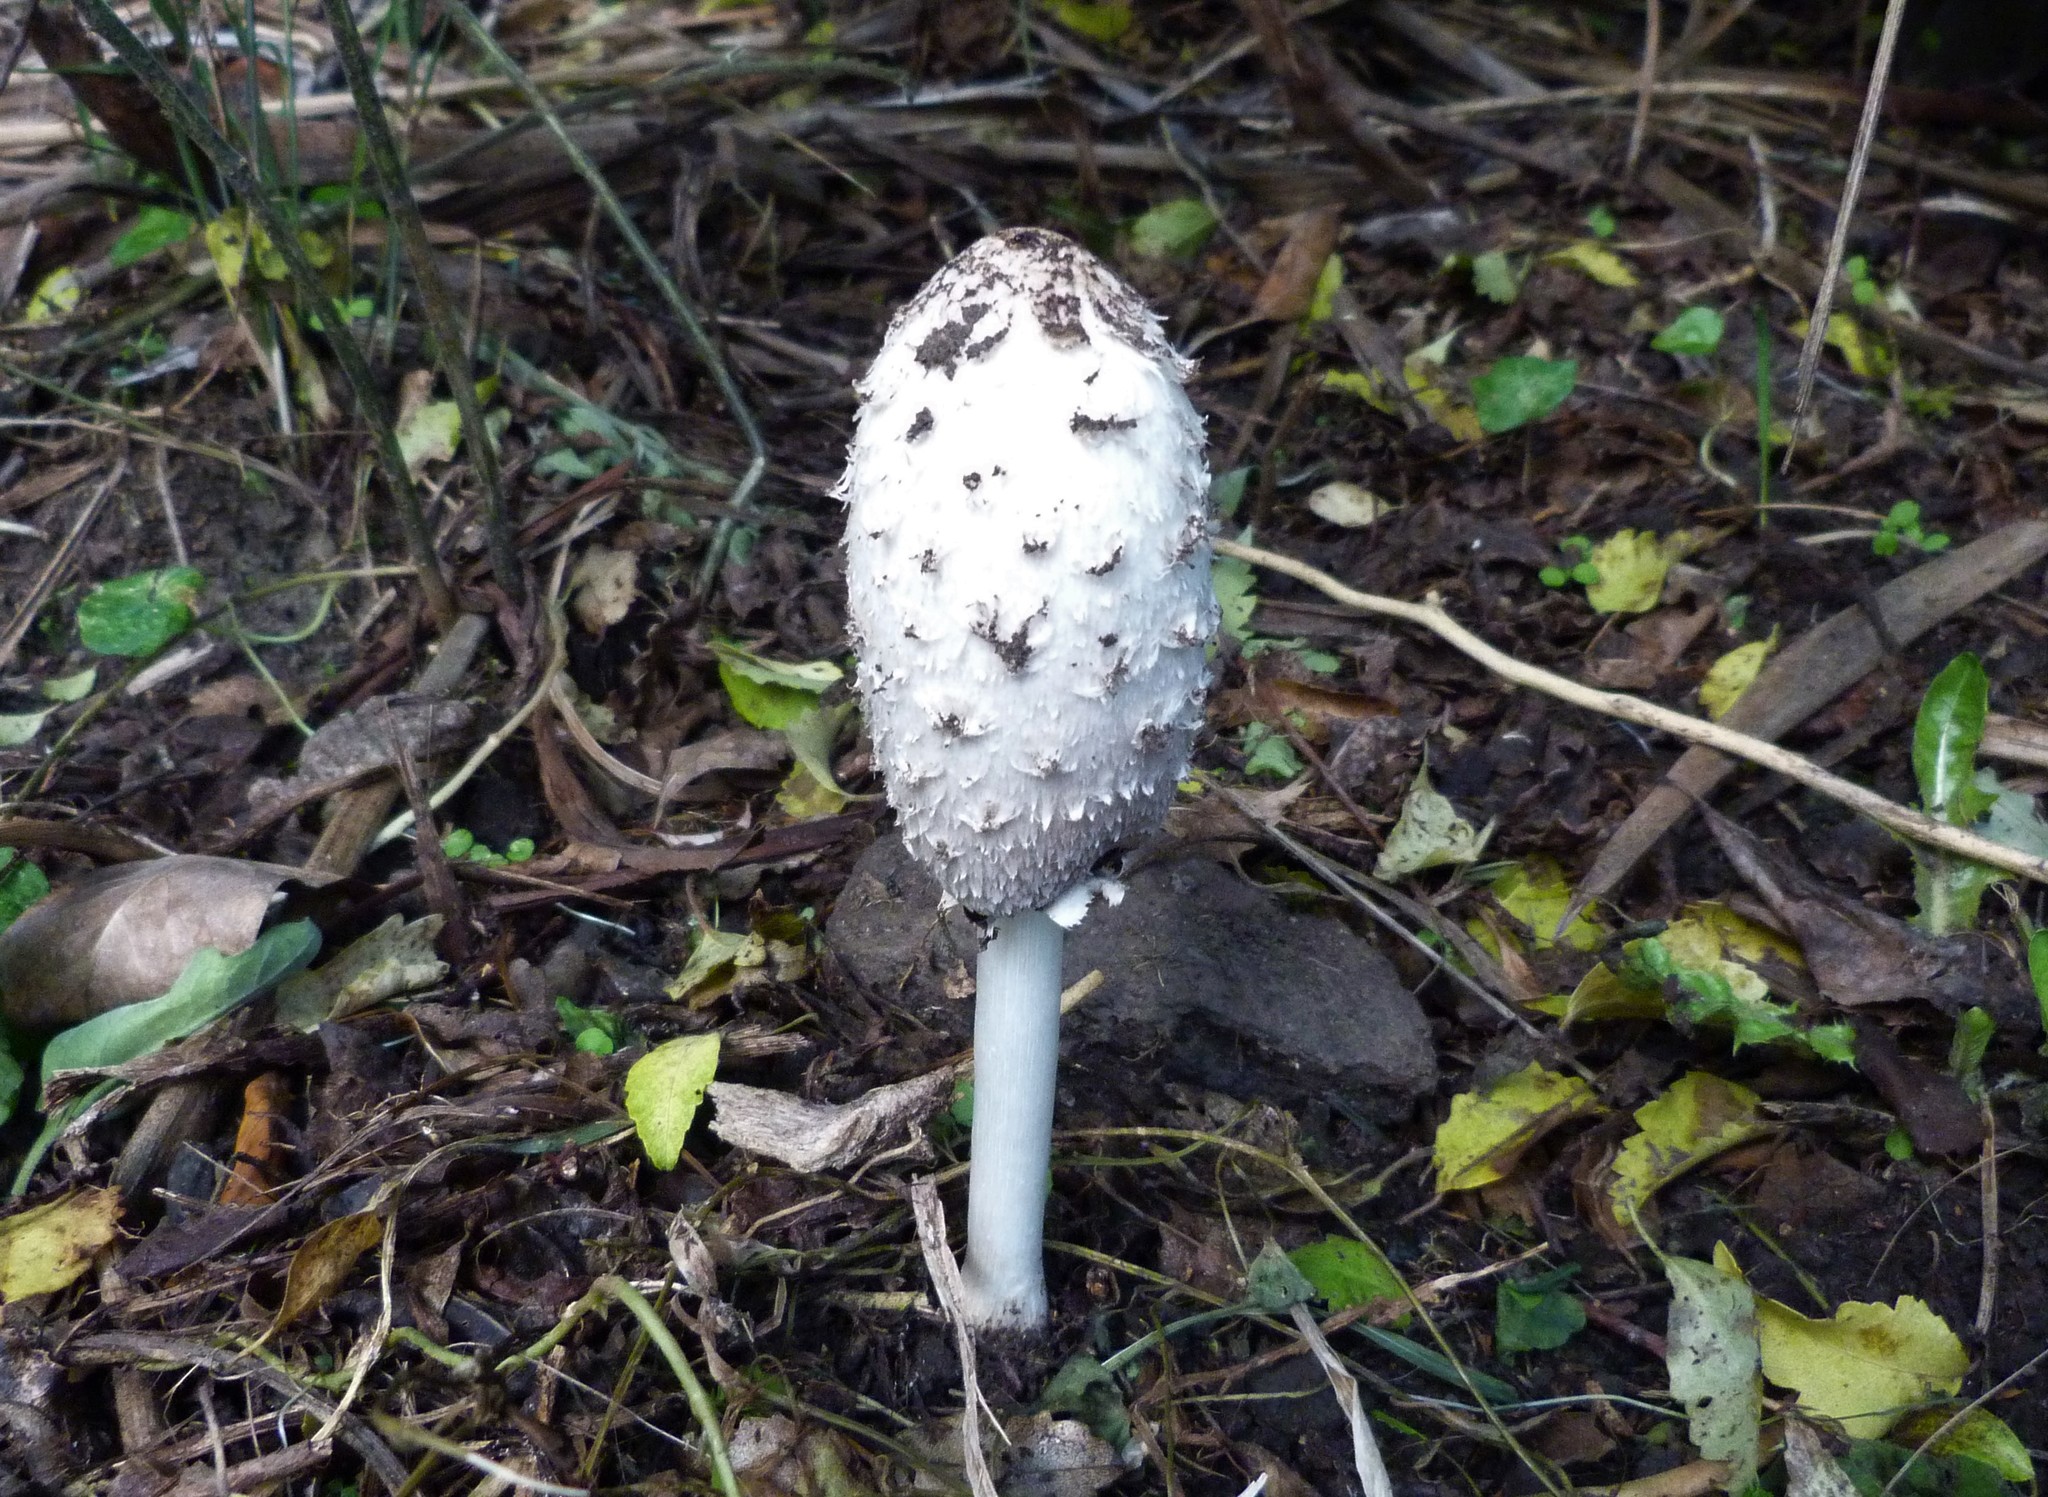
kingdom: Fungi
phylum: Basidiomycota
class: Agaricomycetes
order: Agaricales
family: Agaricaceae
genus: Coprinus
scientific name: Coprinus comatus
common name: Lawyer's wig
